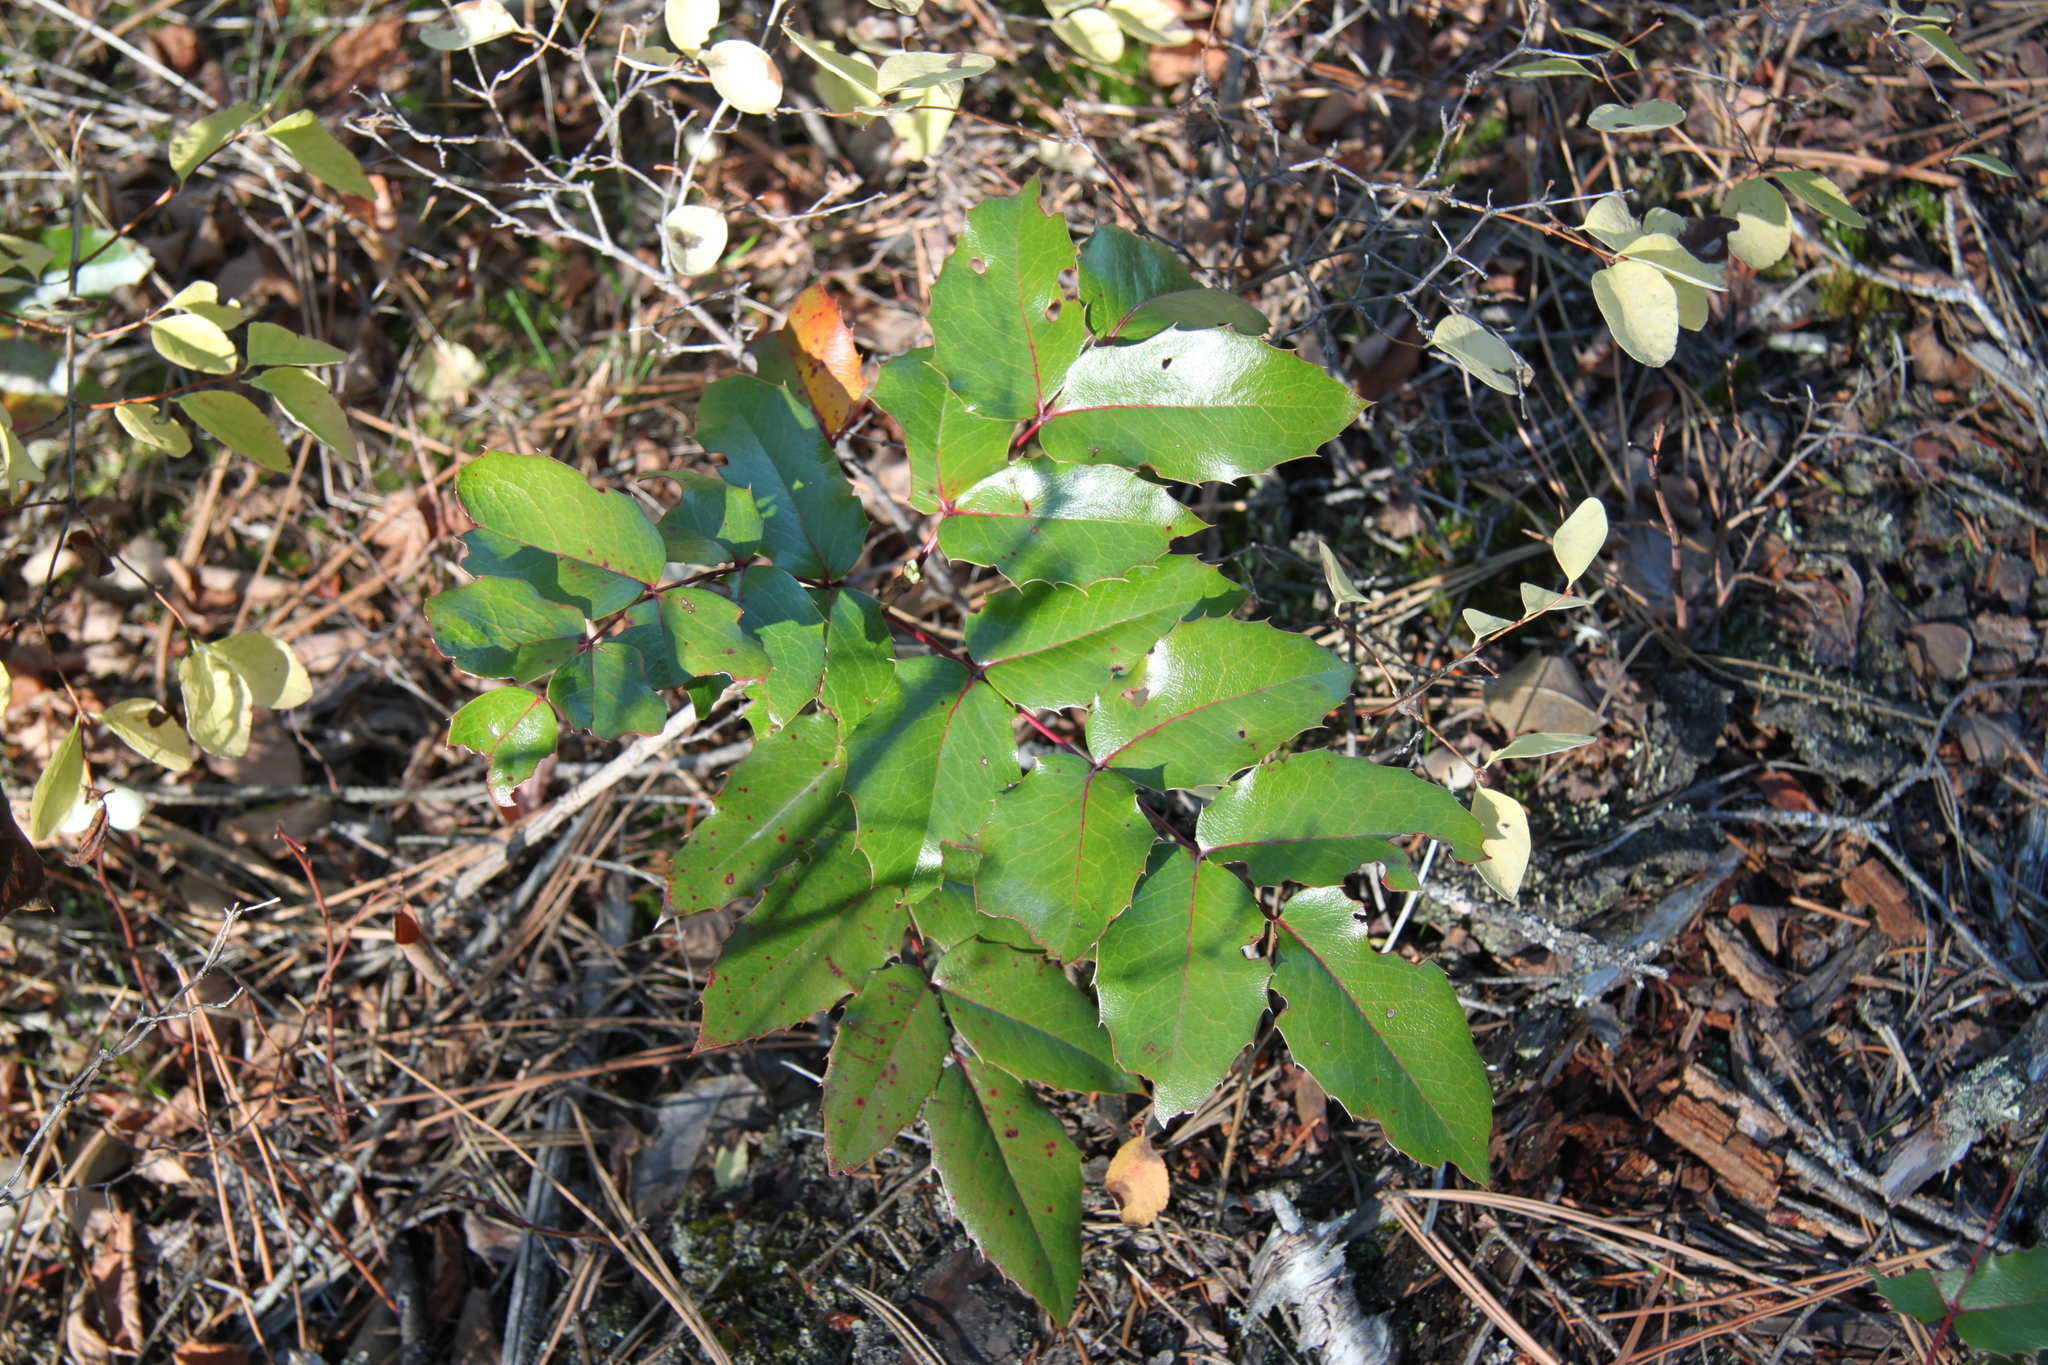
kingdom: Plantae
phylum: Tracheophyta
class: Magnoliopsida
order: Ranunculales
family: Berberidaceae
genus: Mahonia
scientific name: Mahonia aquifolium
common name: Oregon-grape
